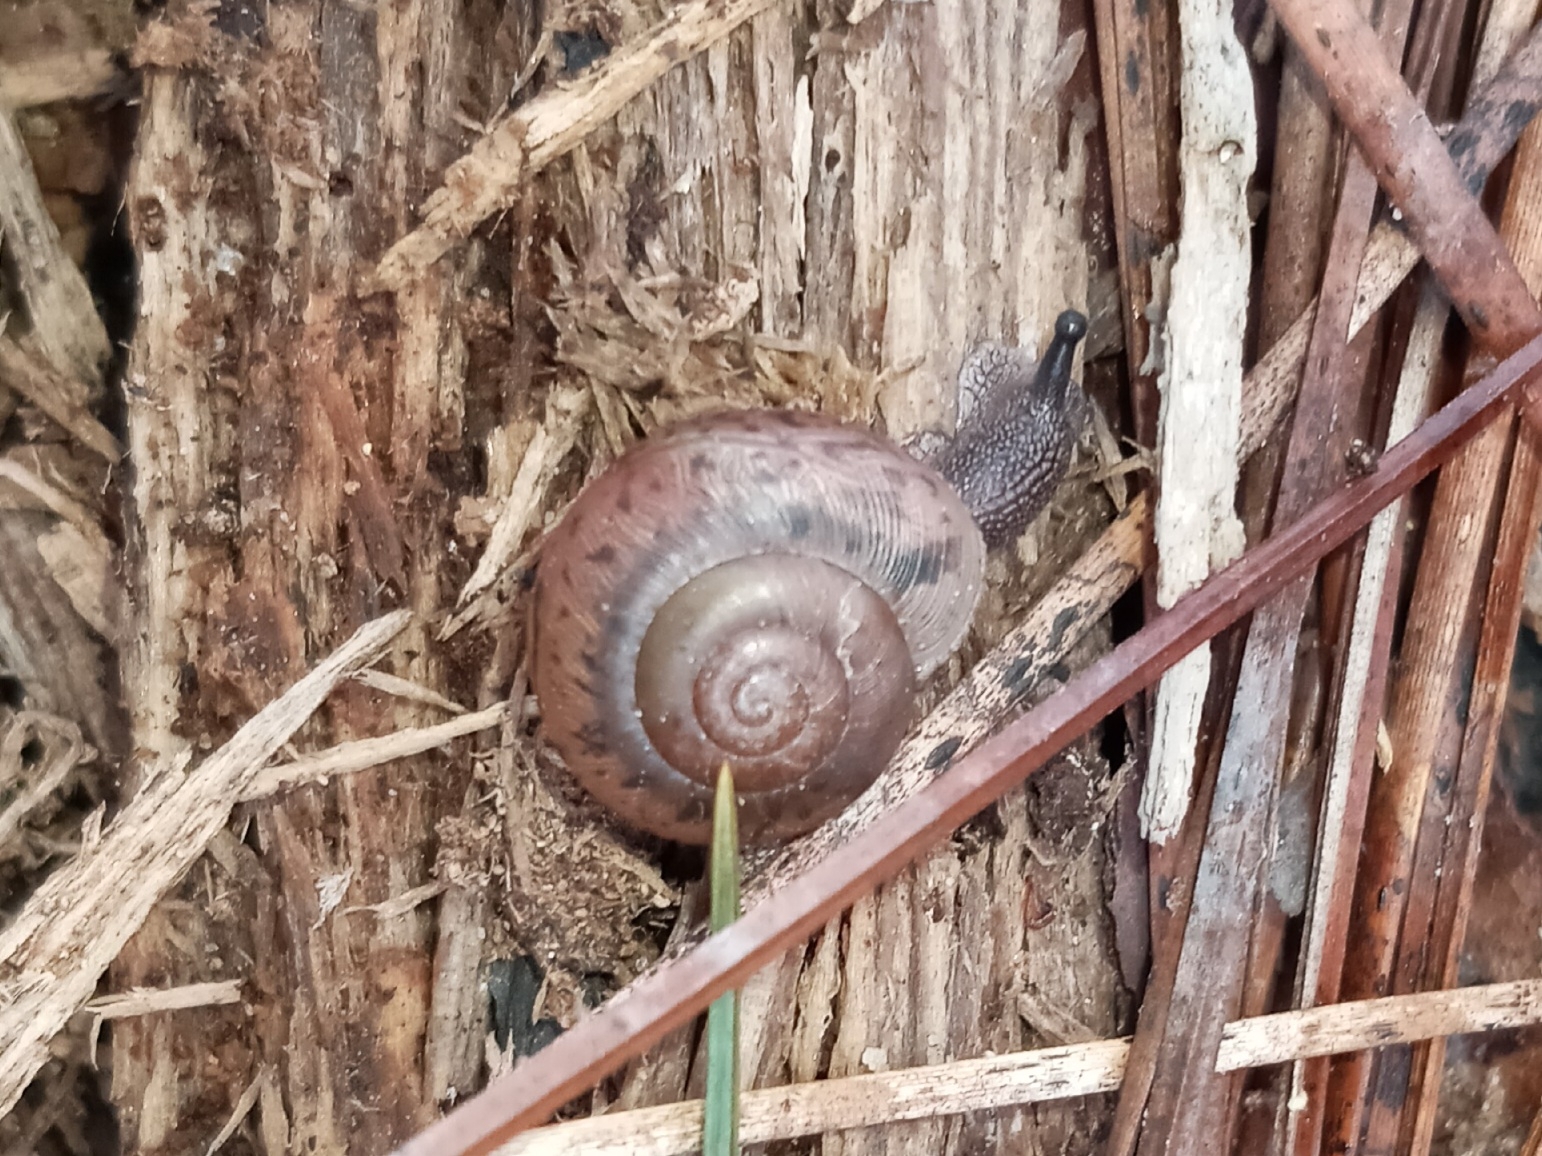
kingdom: Animalia
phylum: Mollusca
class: Gastropoda
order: Stylommatophora
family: Polygyridae
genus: Mesodon
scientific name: Mesodon thyroidus
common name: White-lip globe
